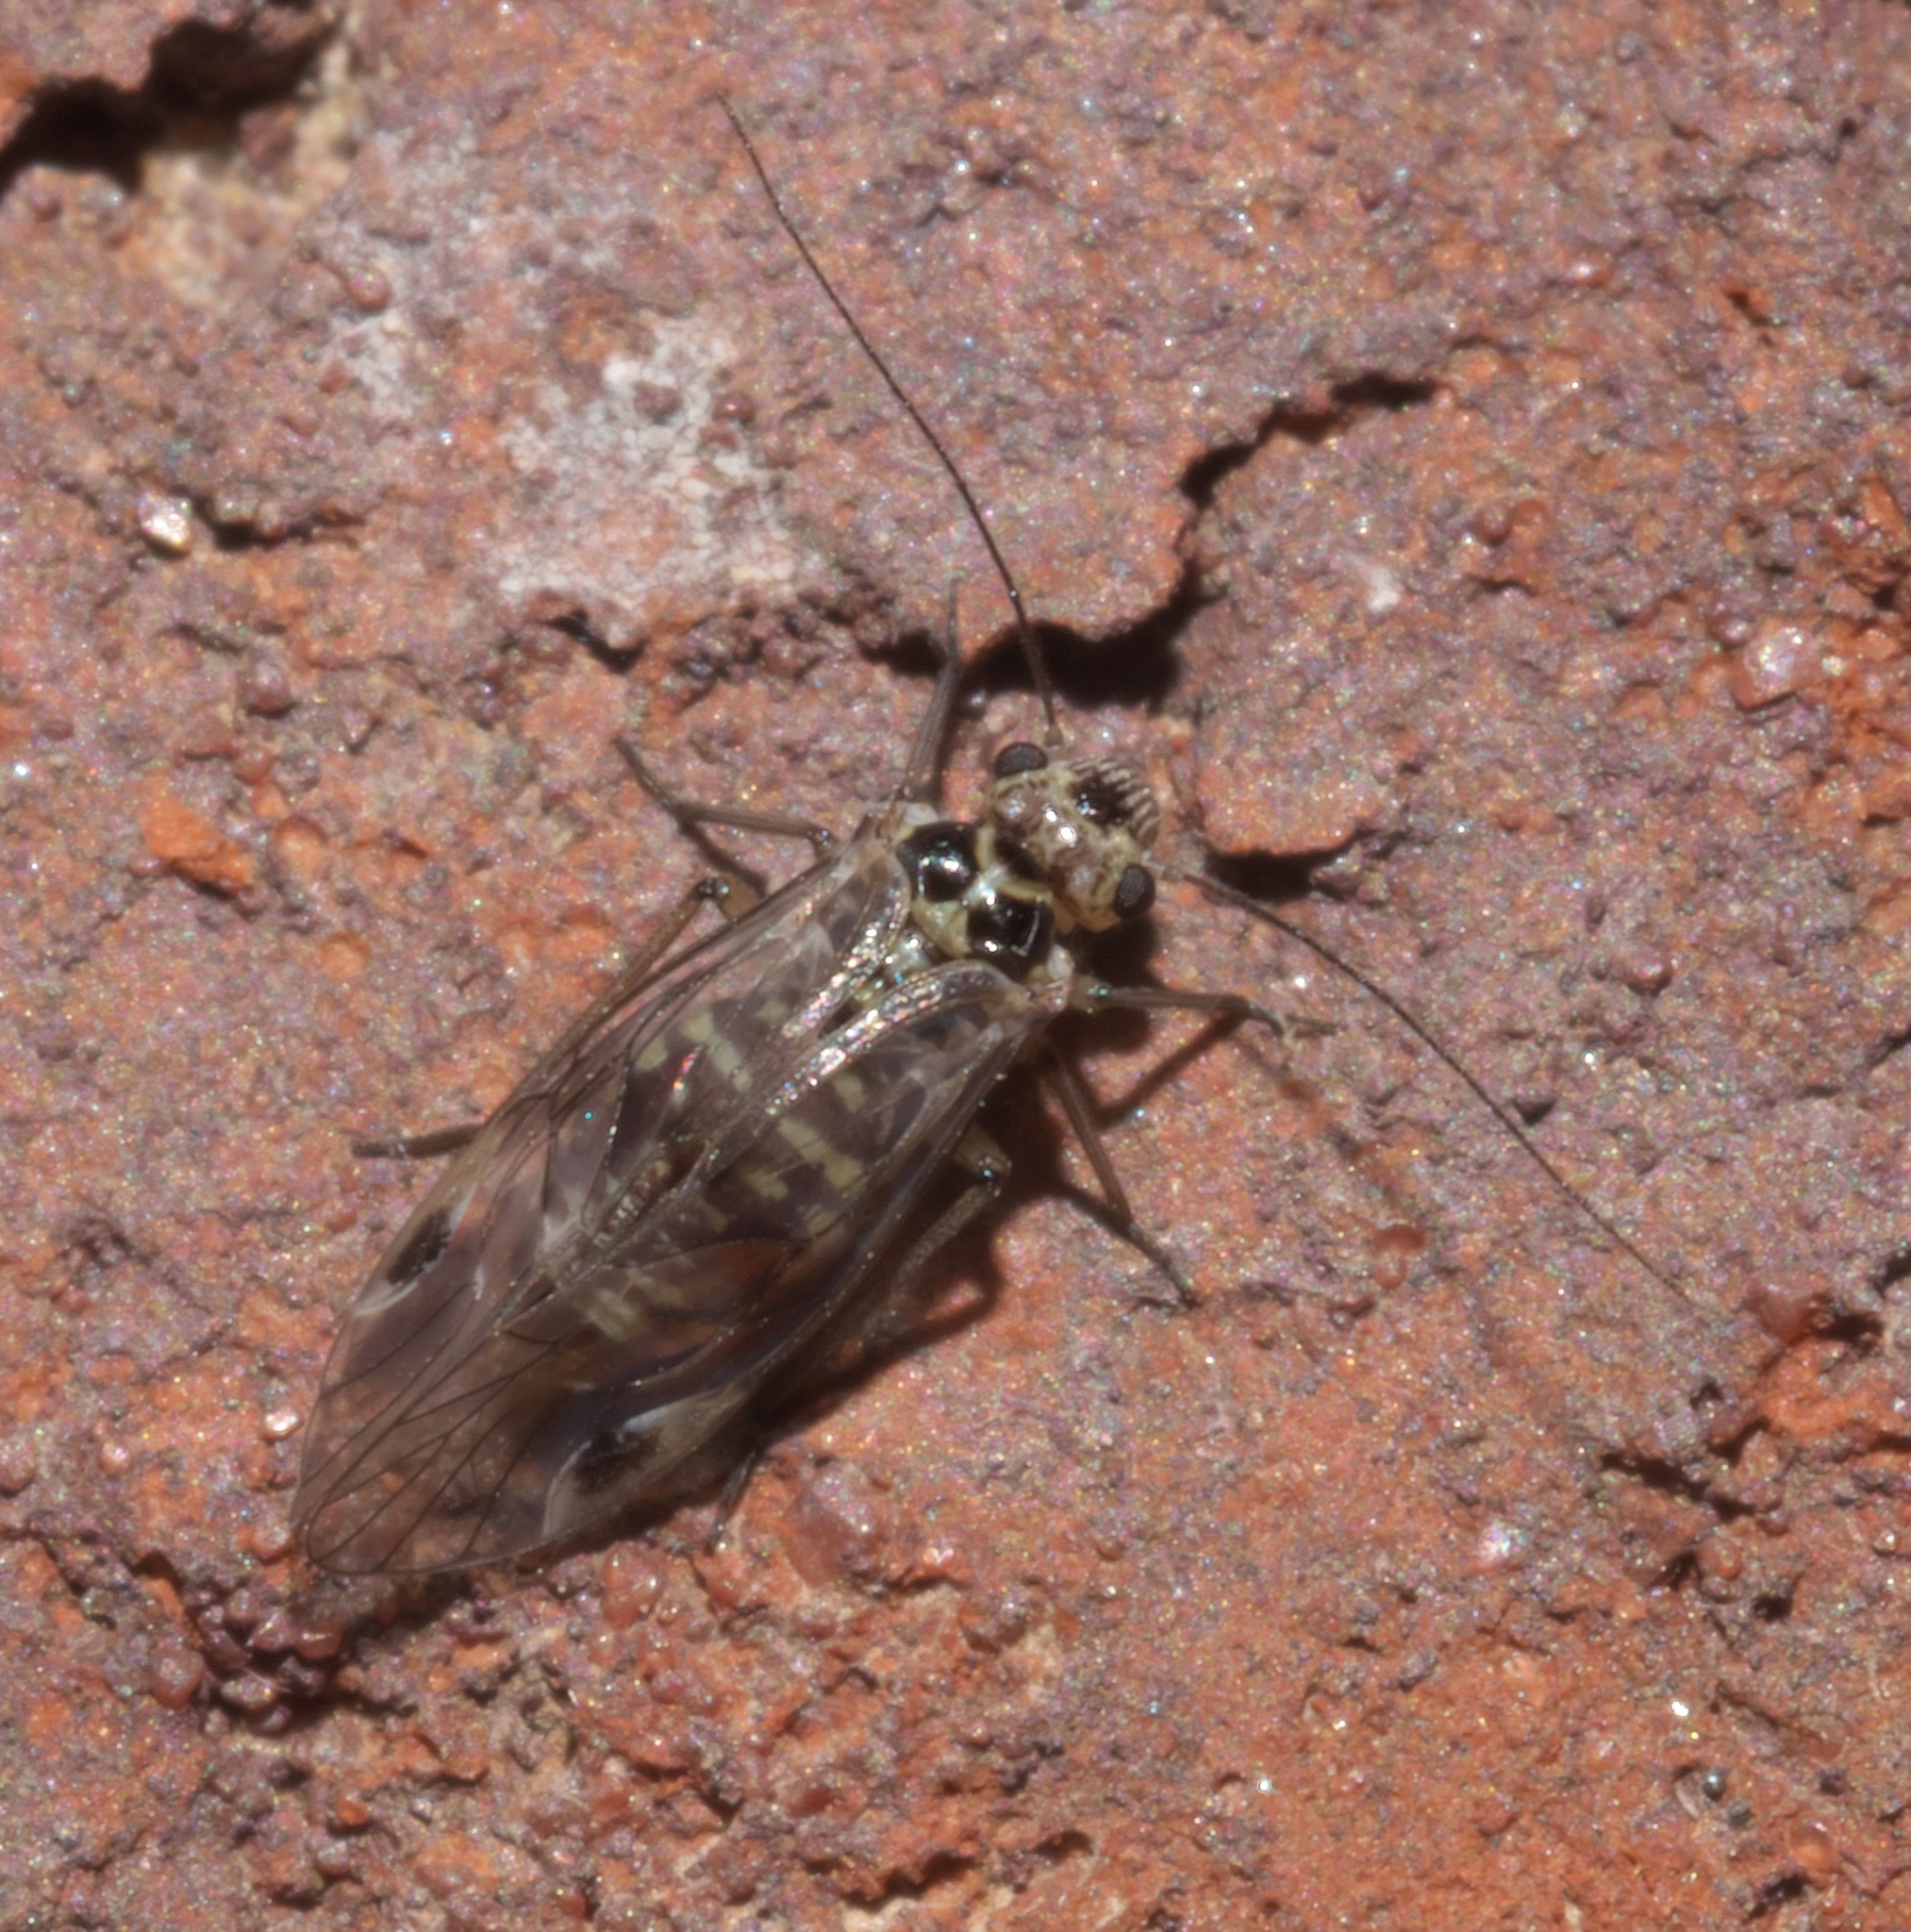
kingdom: Animalia
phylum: Arthropoda
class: Insecta
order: Psocodea
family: Psocidae
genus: Blaste
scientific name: Blaste quieta
